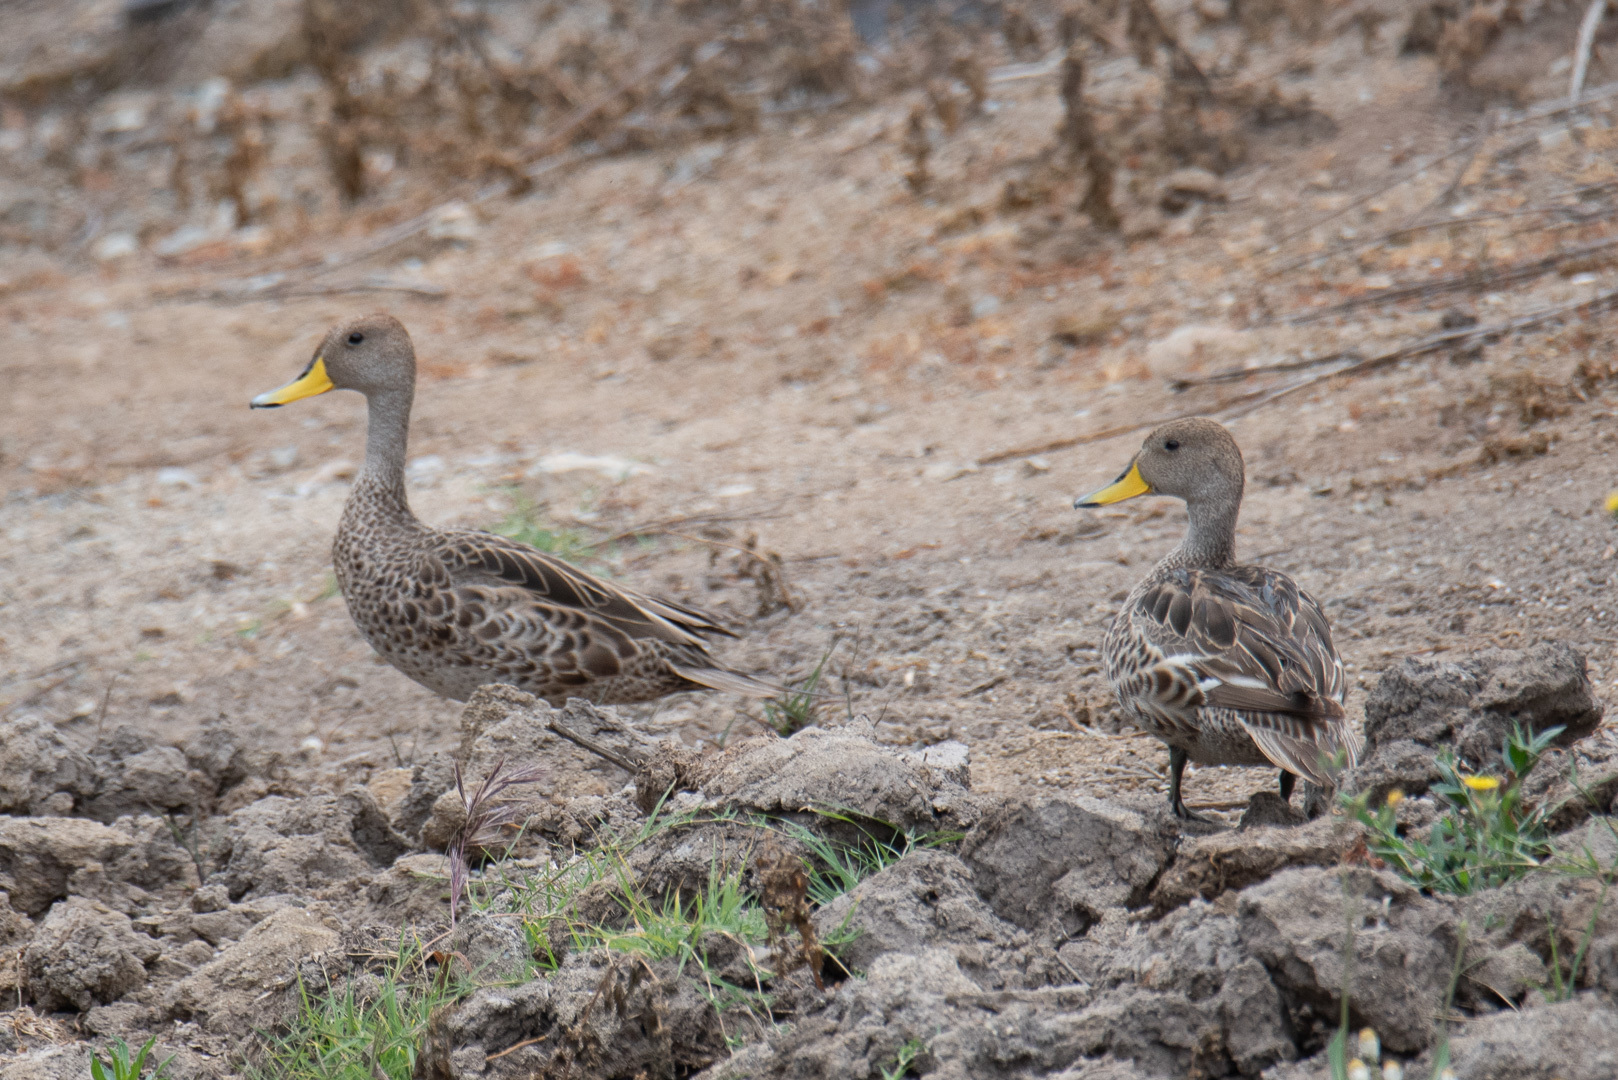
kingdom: Animalia
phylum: Chordata
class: Aves
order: Anseriformes
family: Anatidae
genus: Anas
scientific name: Anas georgica
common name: Yellow-billed pintail
